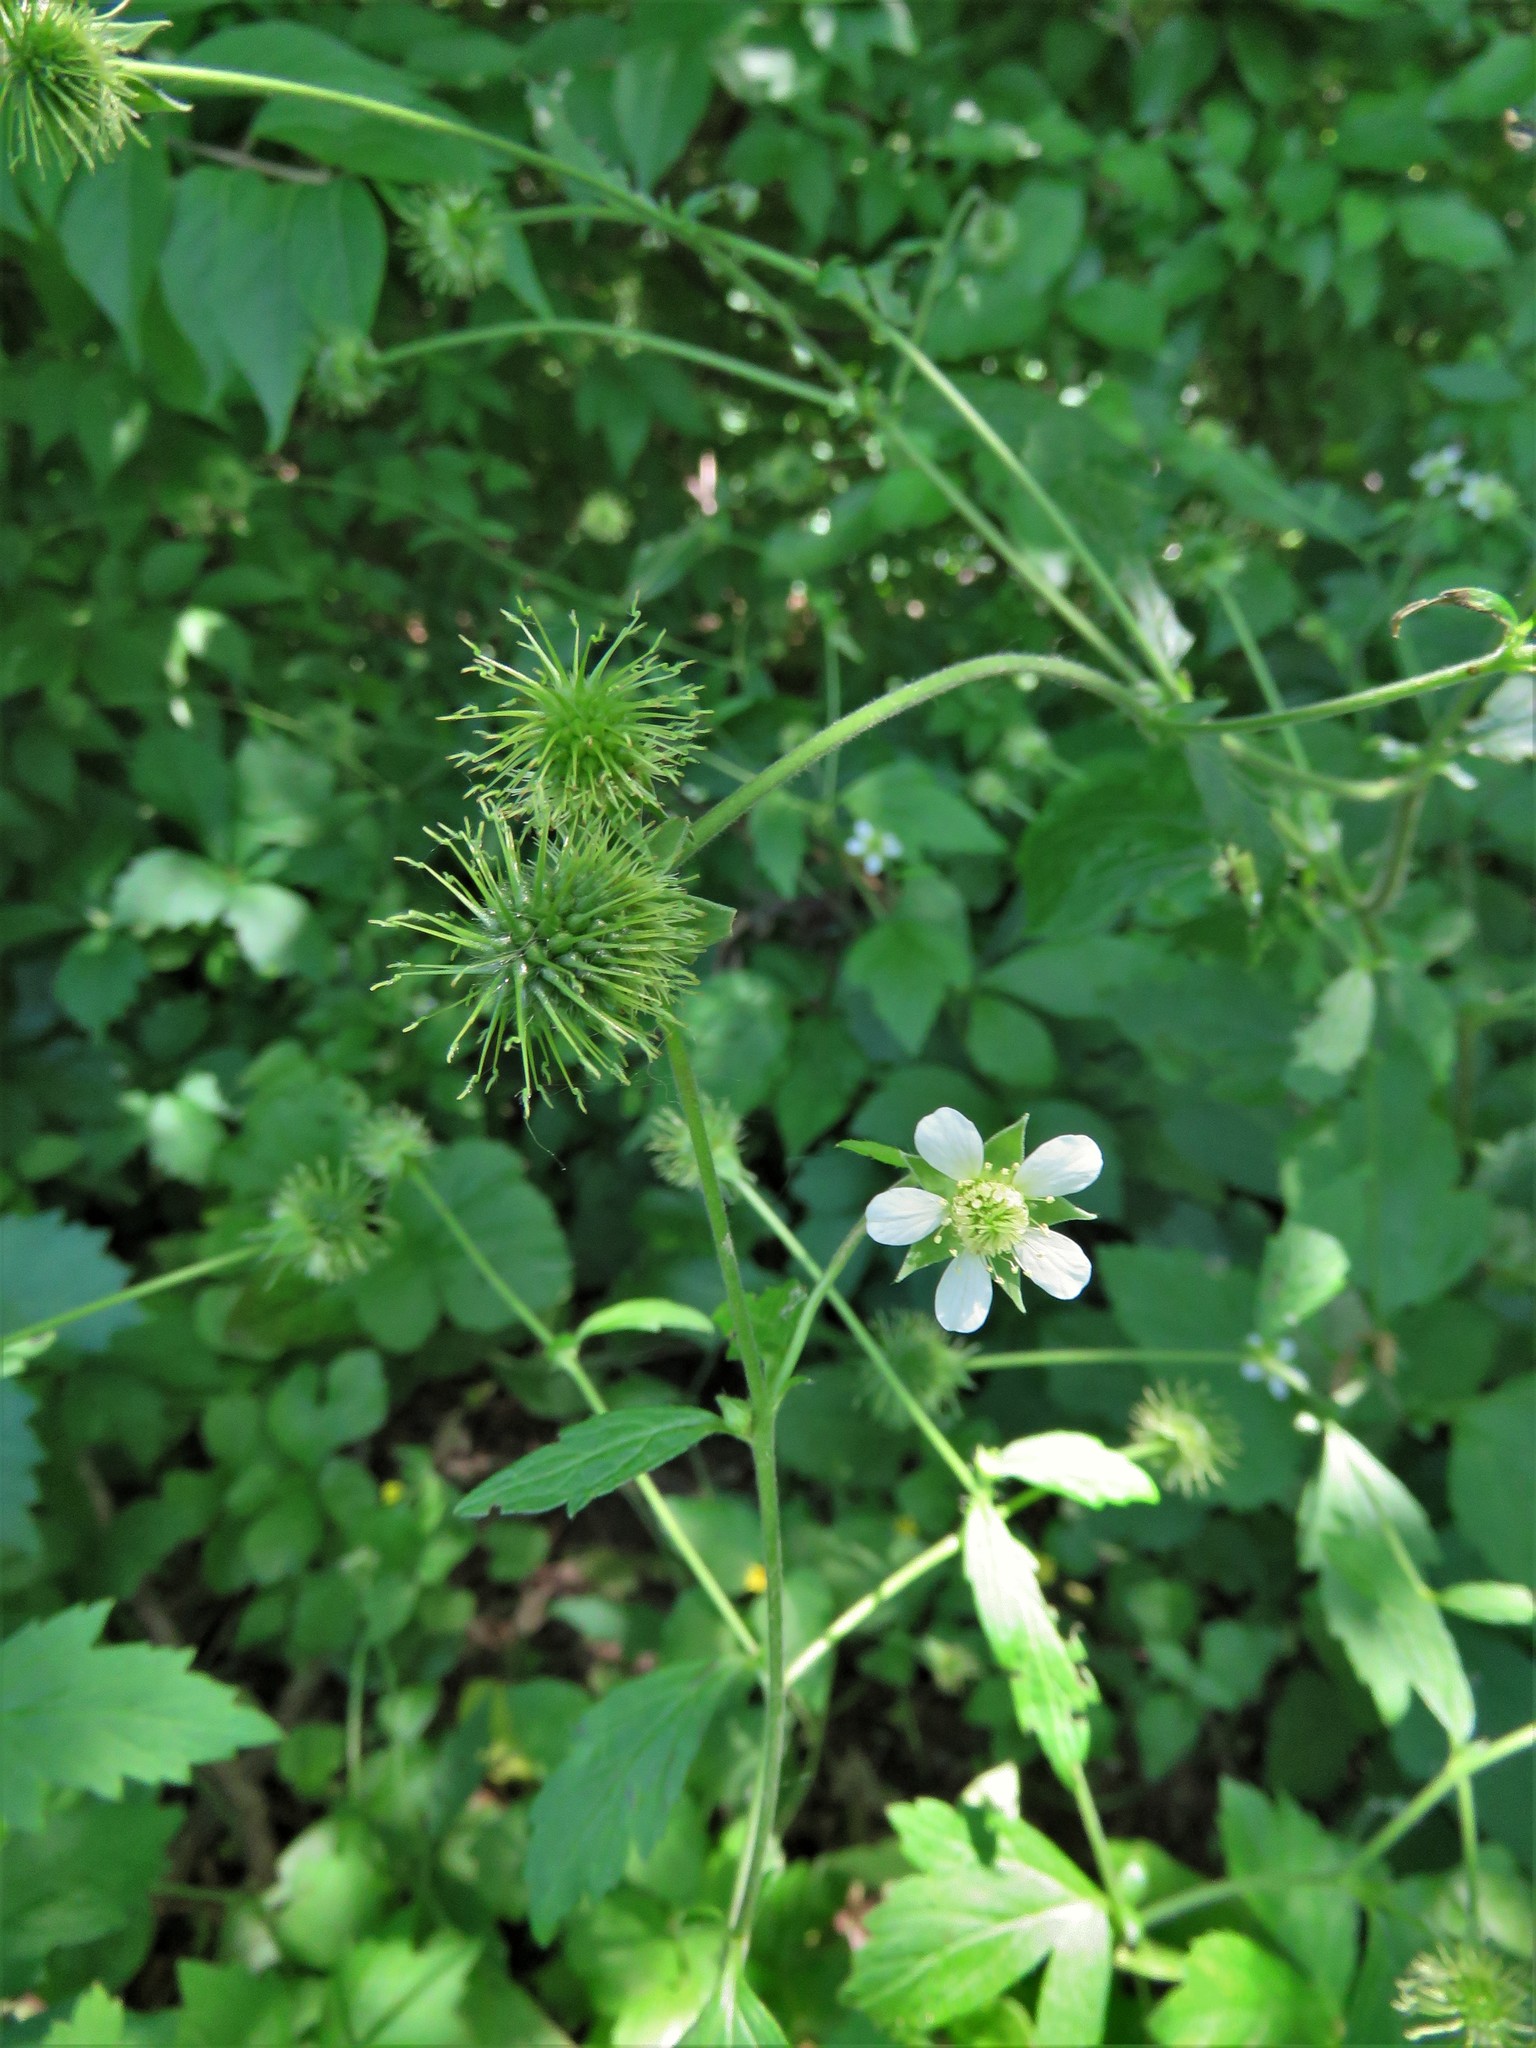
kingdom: Plantae
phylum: Tracheophyta
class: Magnoliopsida
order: Rosales
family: Rosaceae
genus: Geum
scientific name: Geum canadense
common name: White avens
